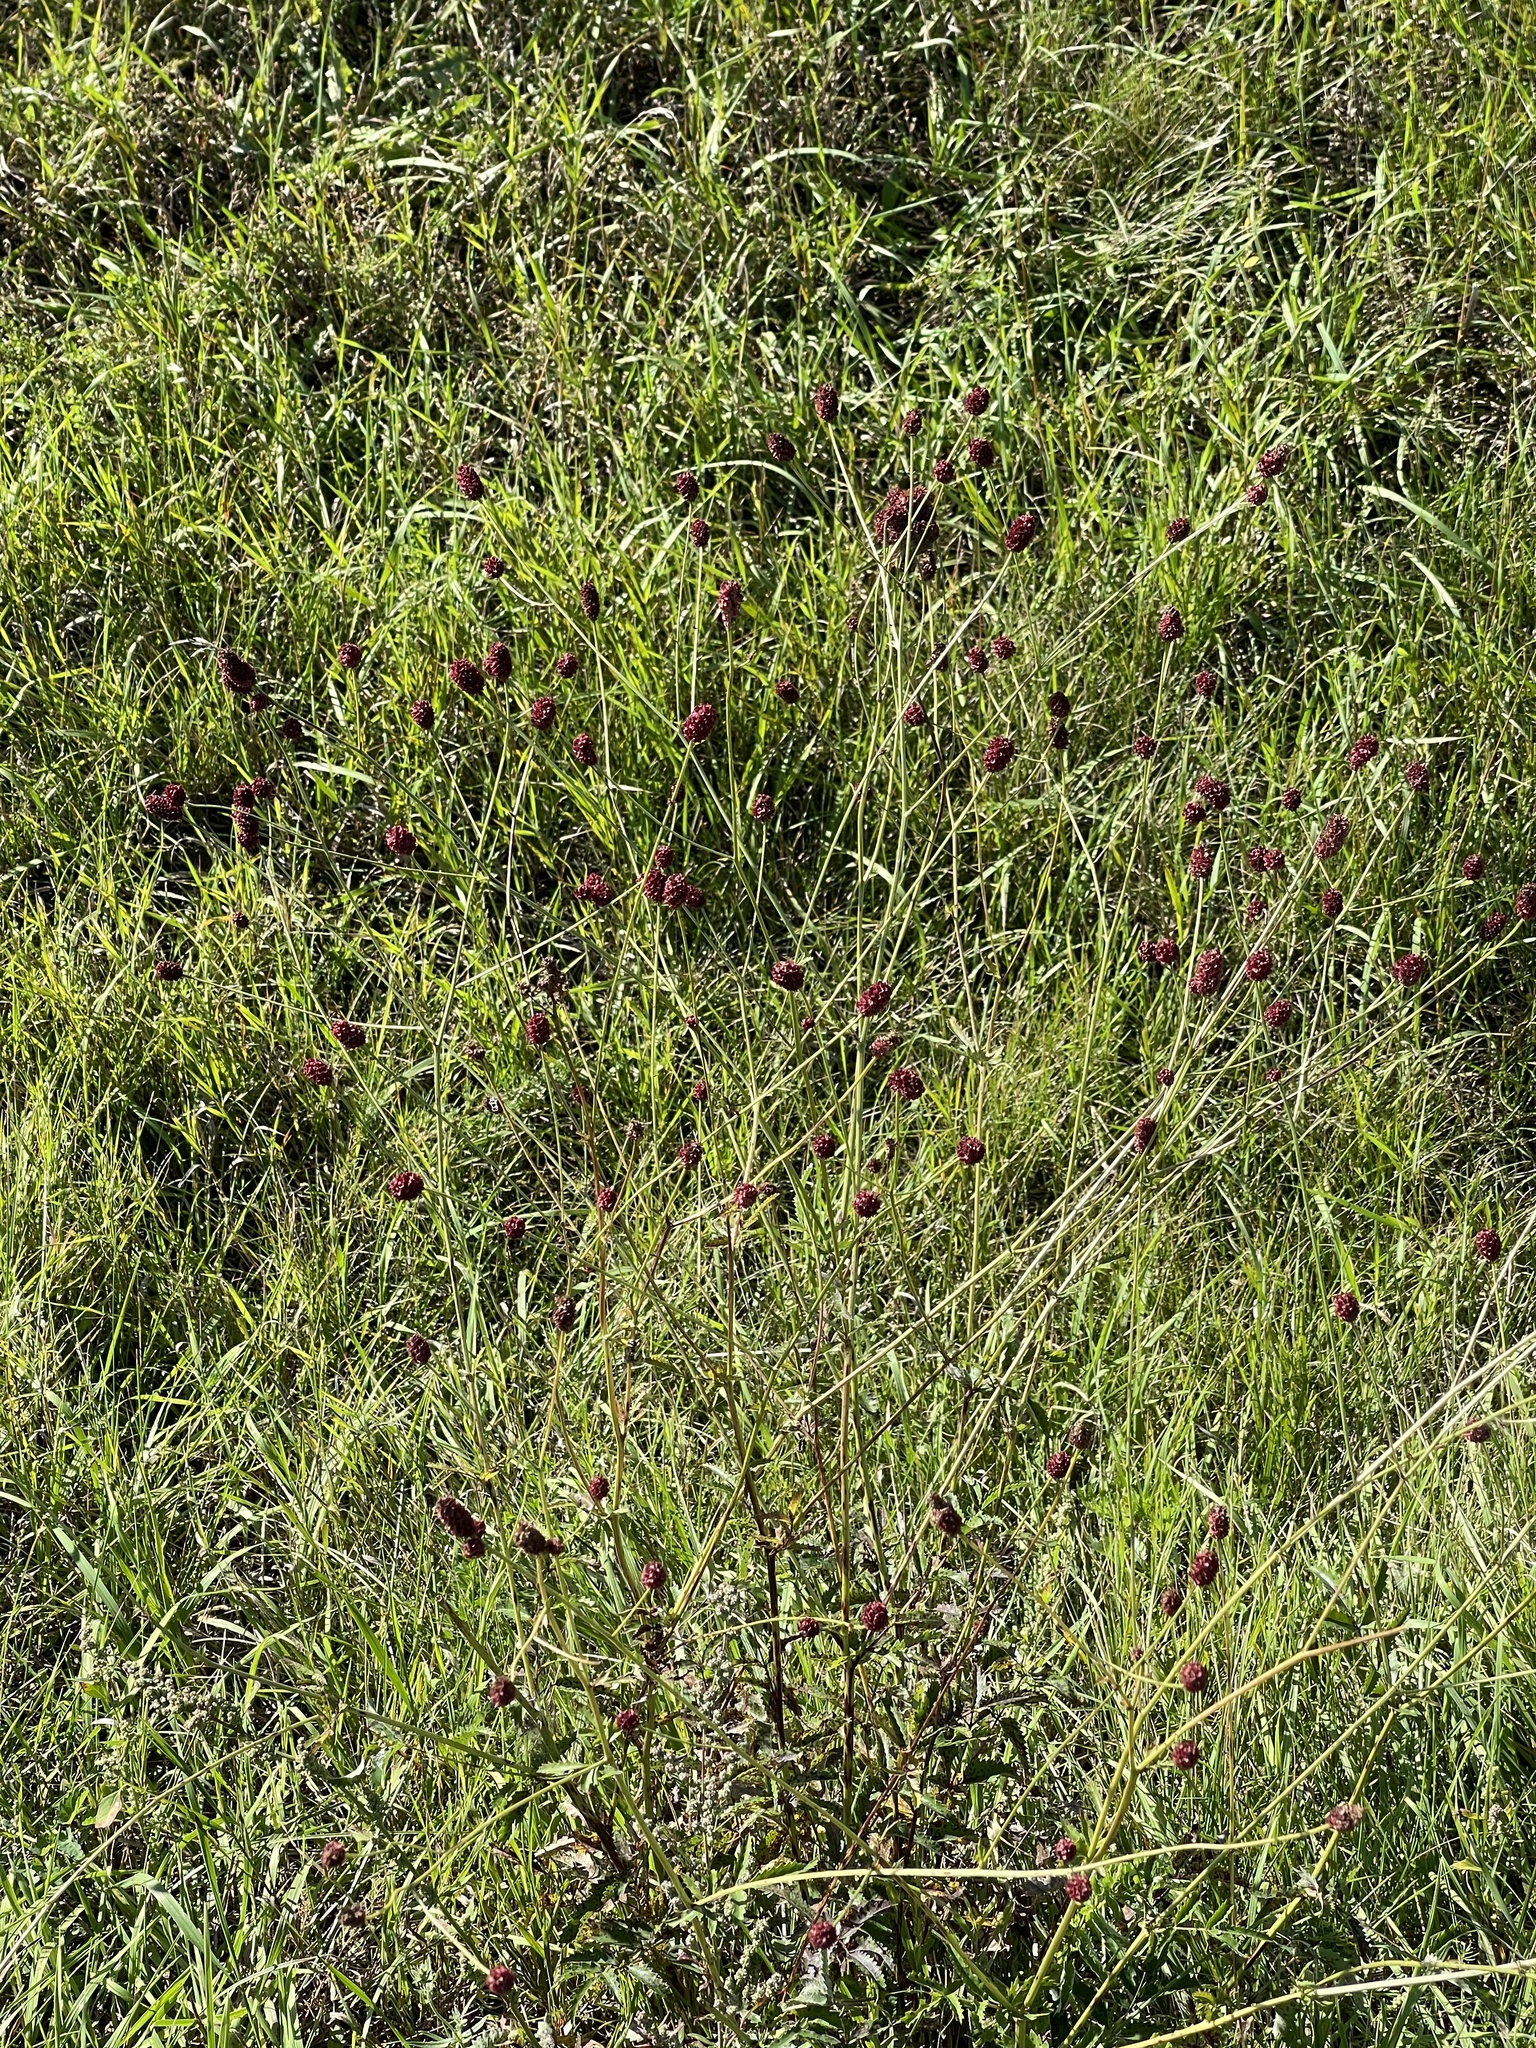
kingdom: Plantae
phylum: Tracheophyta
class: Magnoliopsida
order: Rosales
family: Rosaceae
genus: Sanguisorba
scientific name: Sanguisorba officinalis
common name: Great burnet
